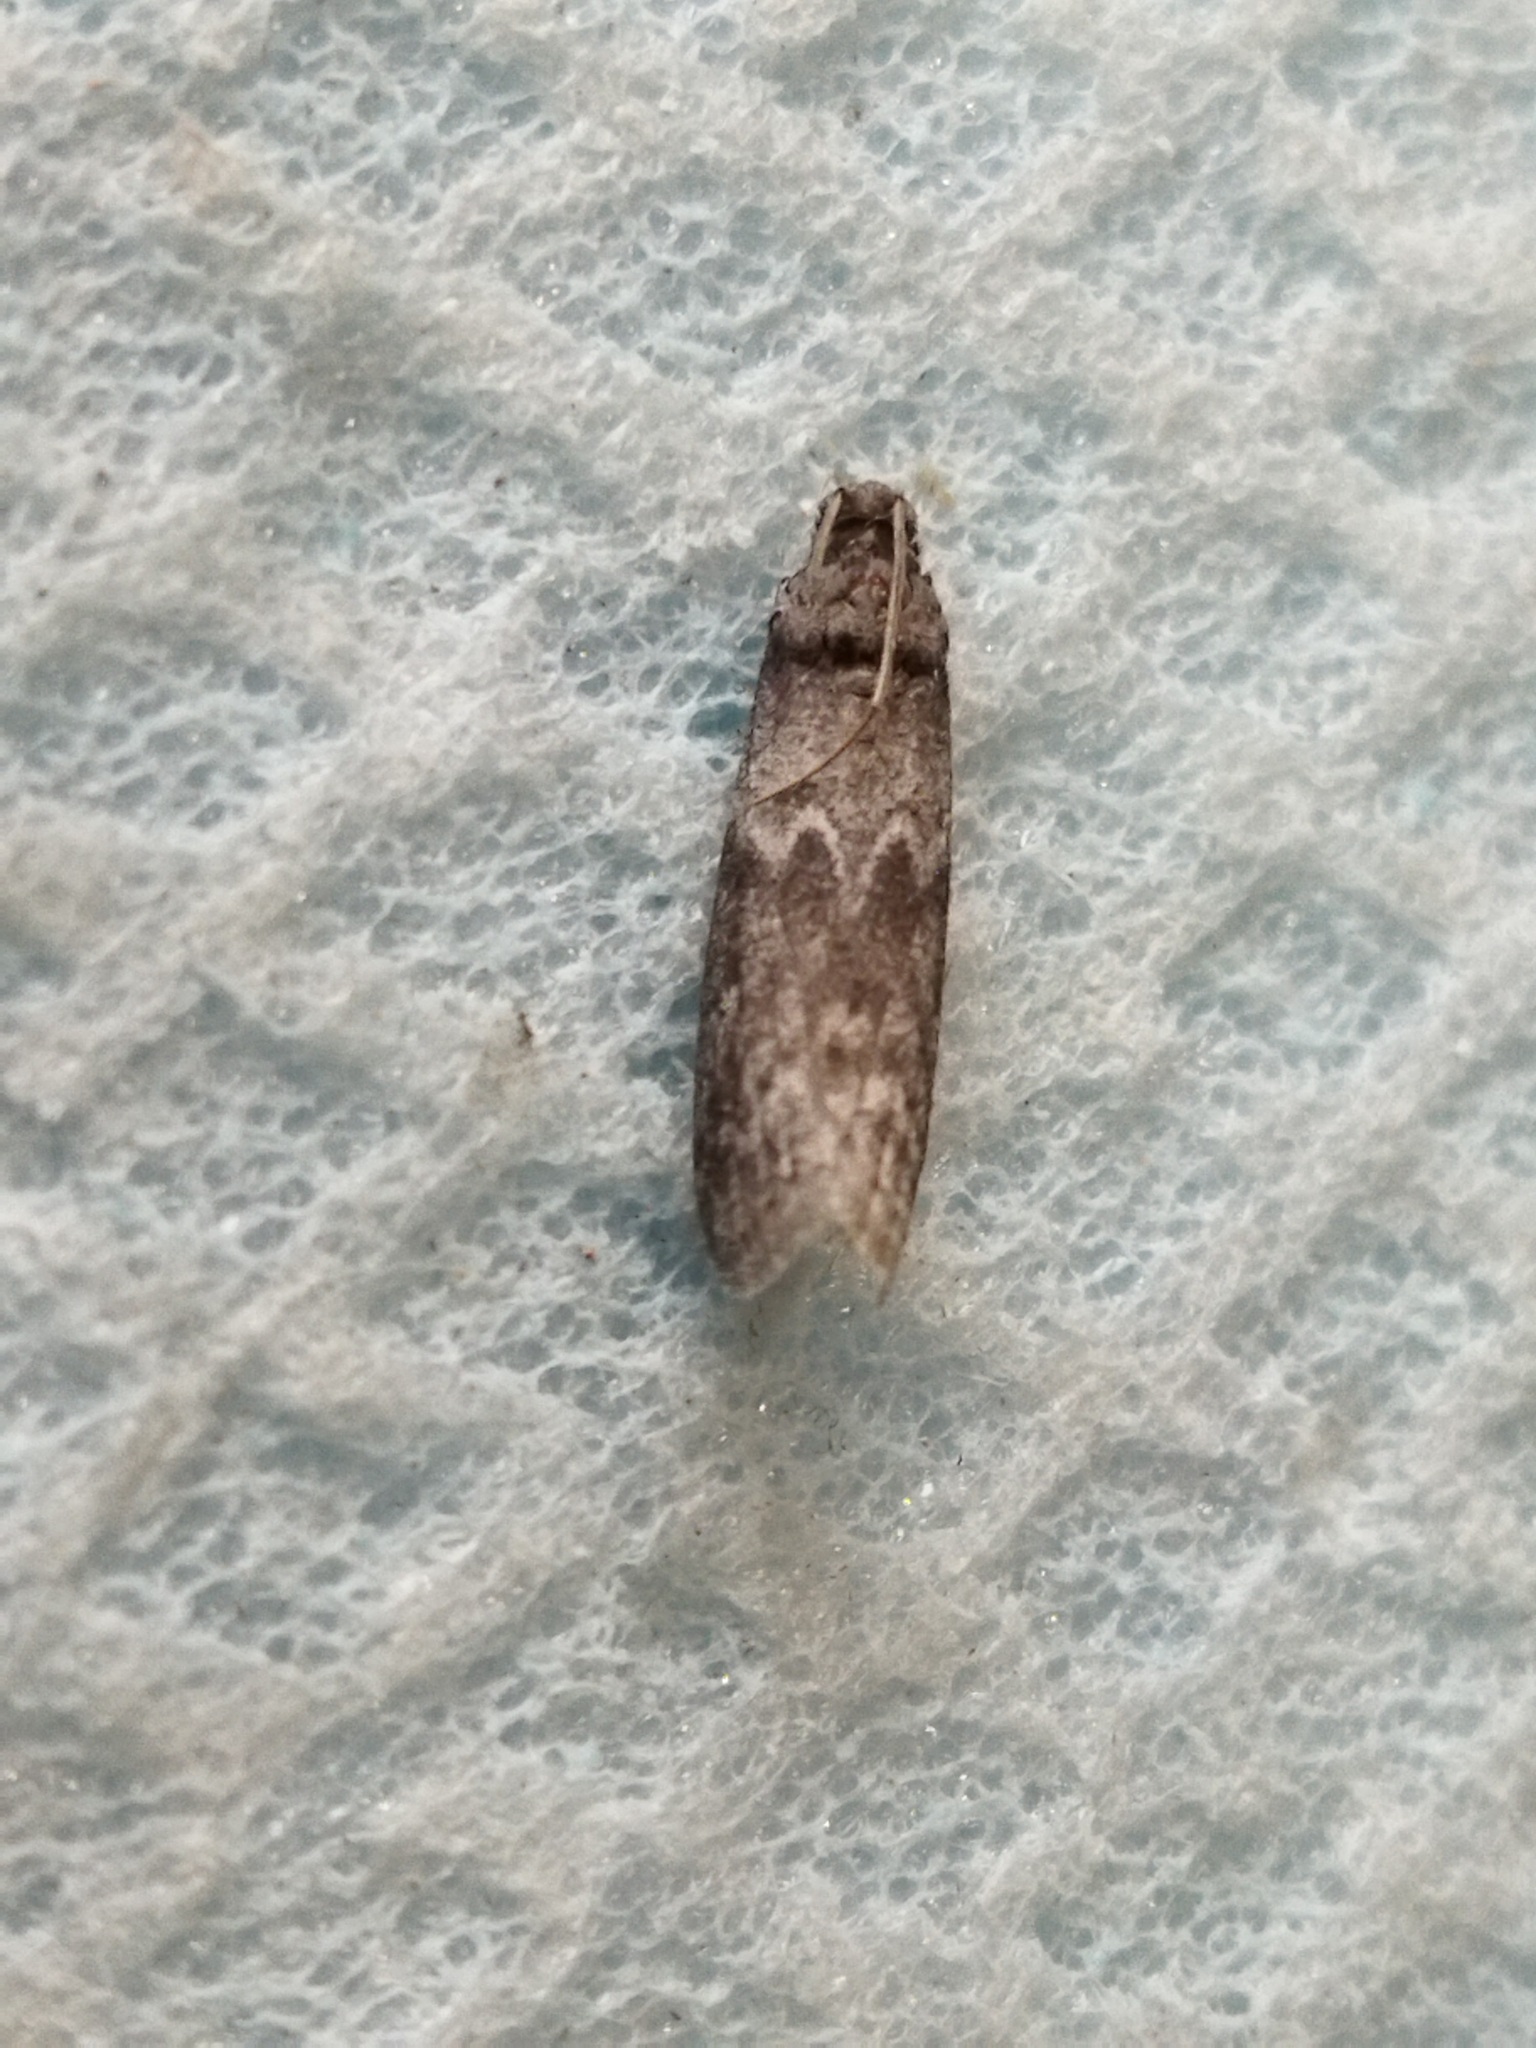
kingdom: Animalia
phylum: Arthropoda
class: Insecta
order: Lepidoptera
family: Pyralidae
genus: Ectomyelois
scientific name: Ectomyelois ceratoniae
